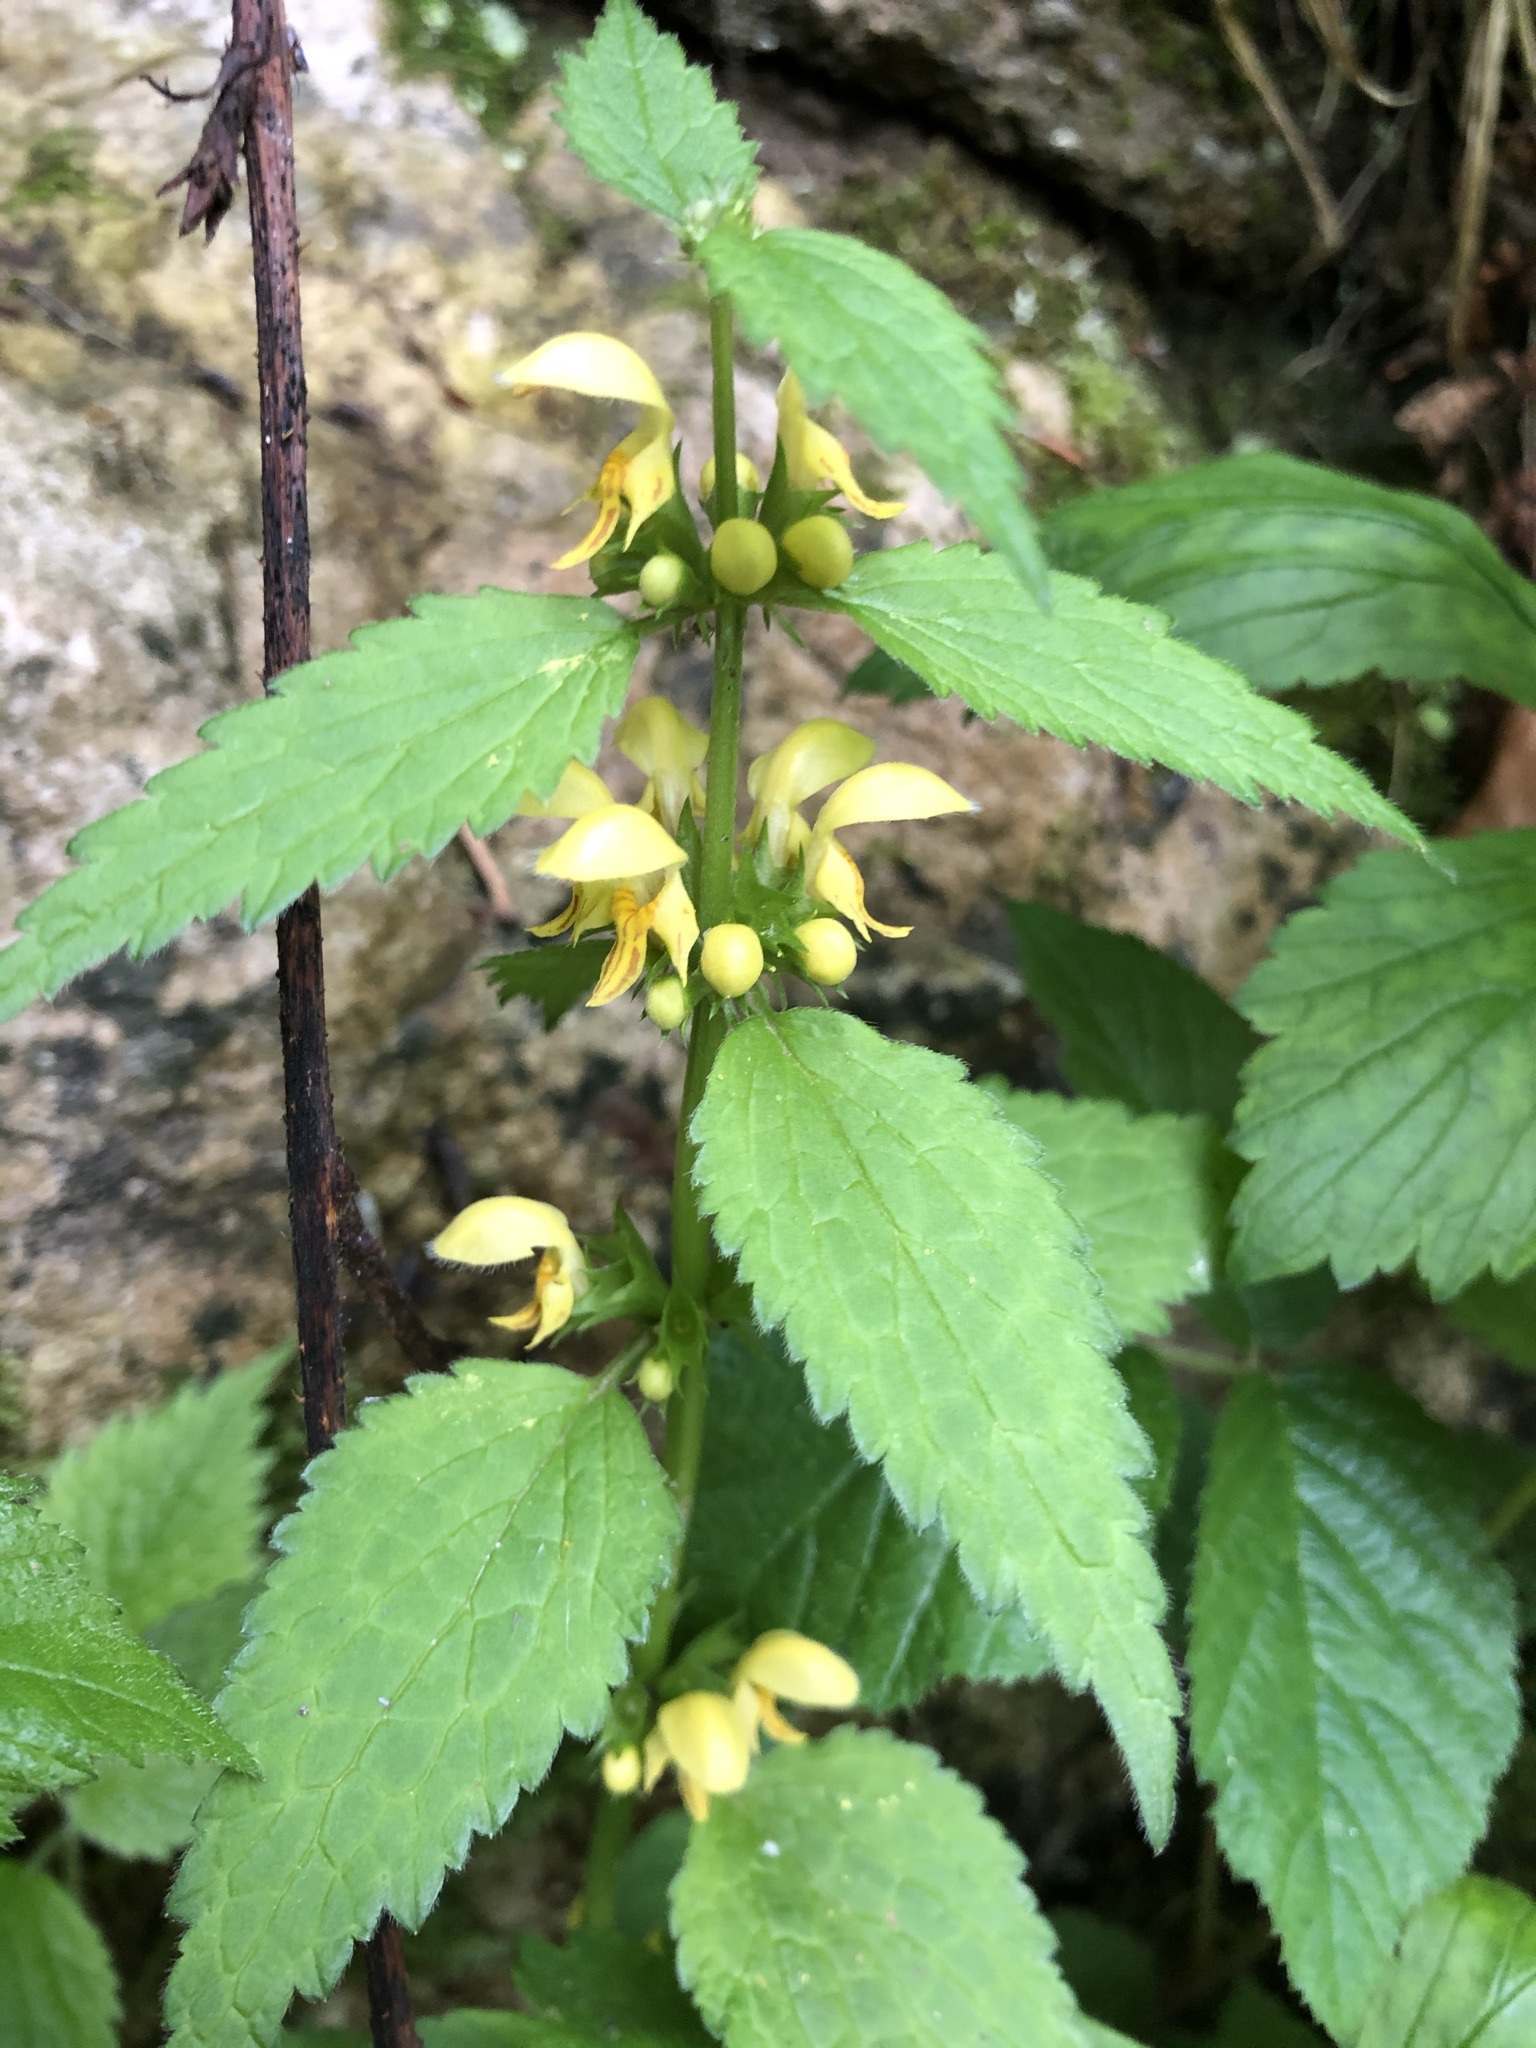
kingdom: Plantae
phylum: Tracheophyta
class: Magnoliopsida
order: Lamiales
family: Lamiaceae
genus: Lamium
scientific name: Lamium galeobdolon
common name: Yellow archangel
